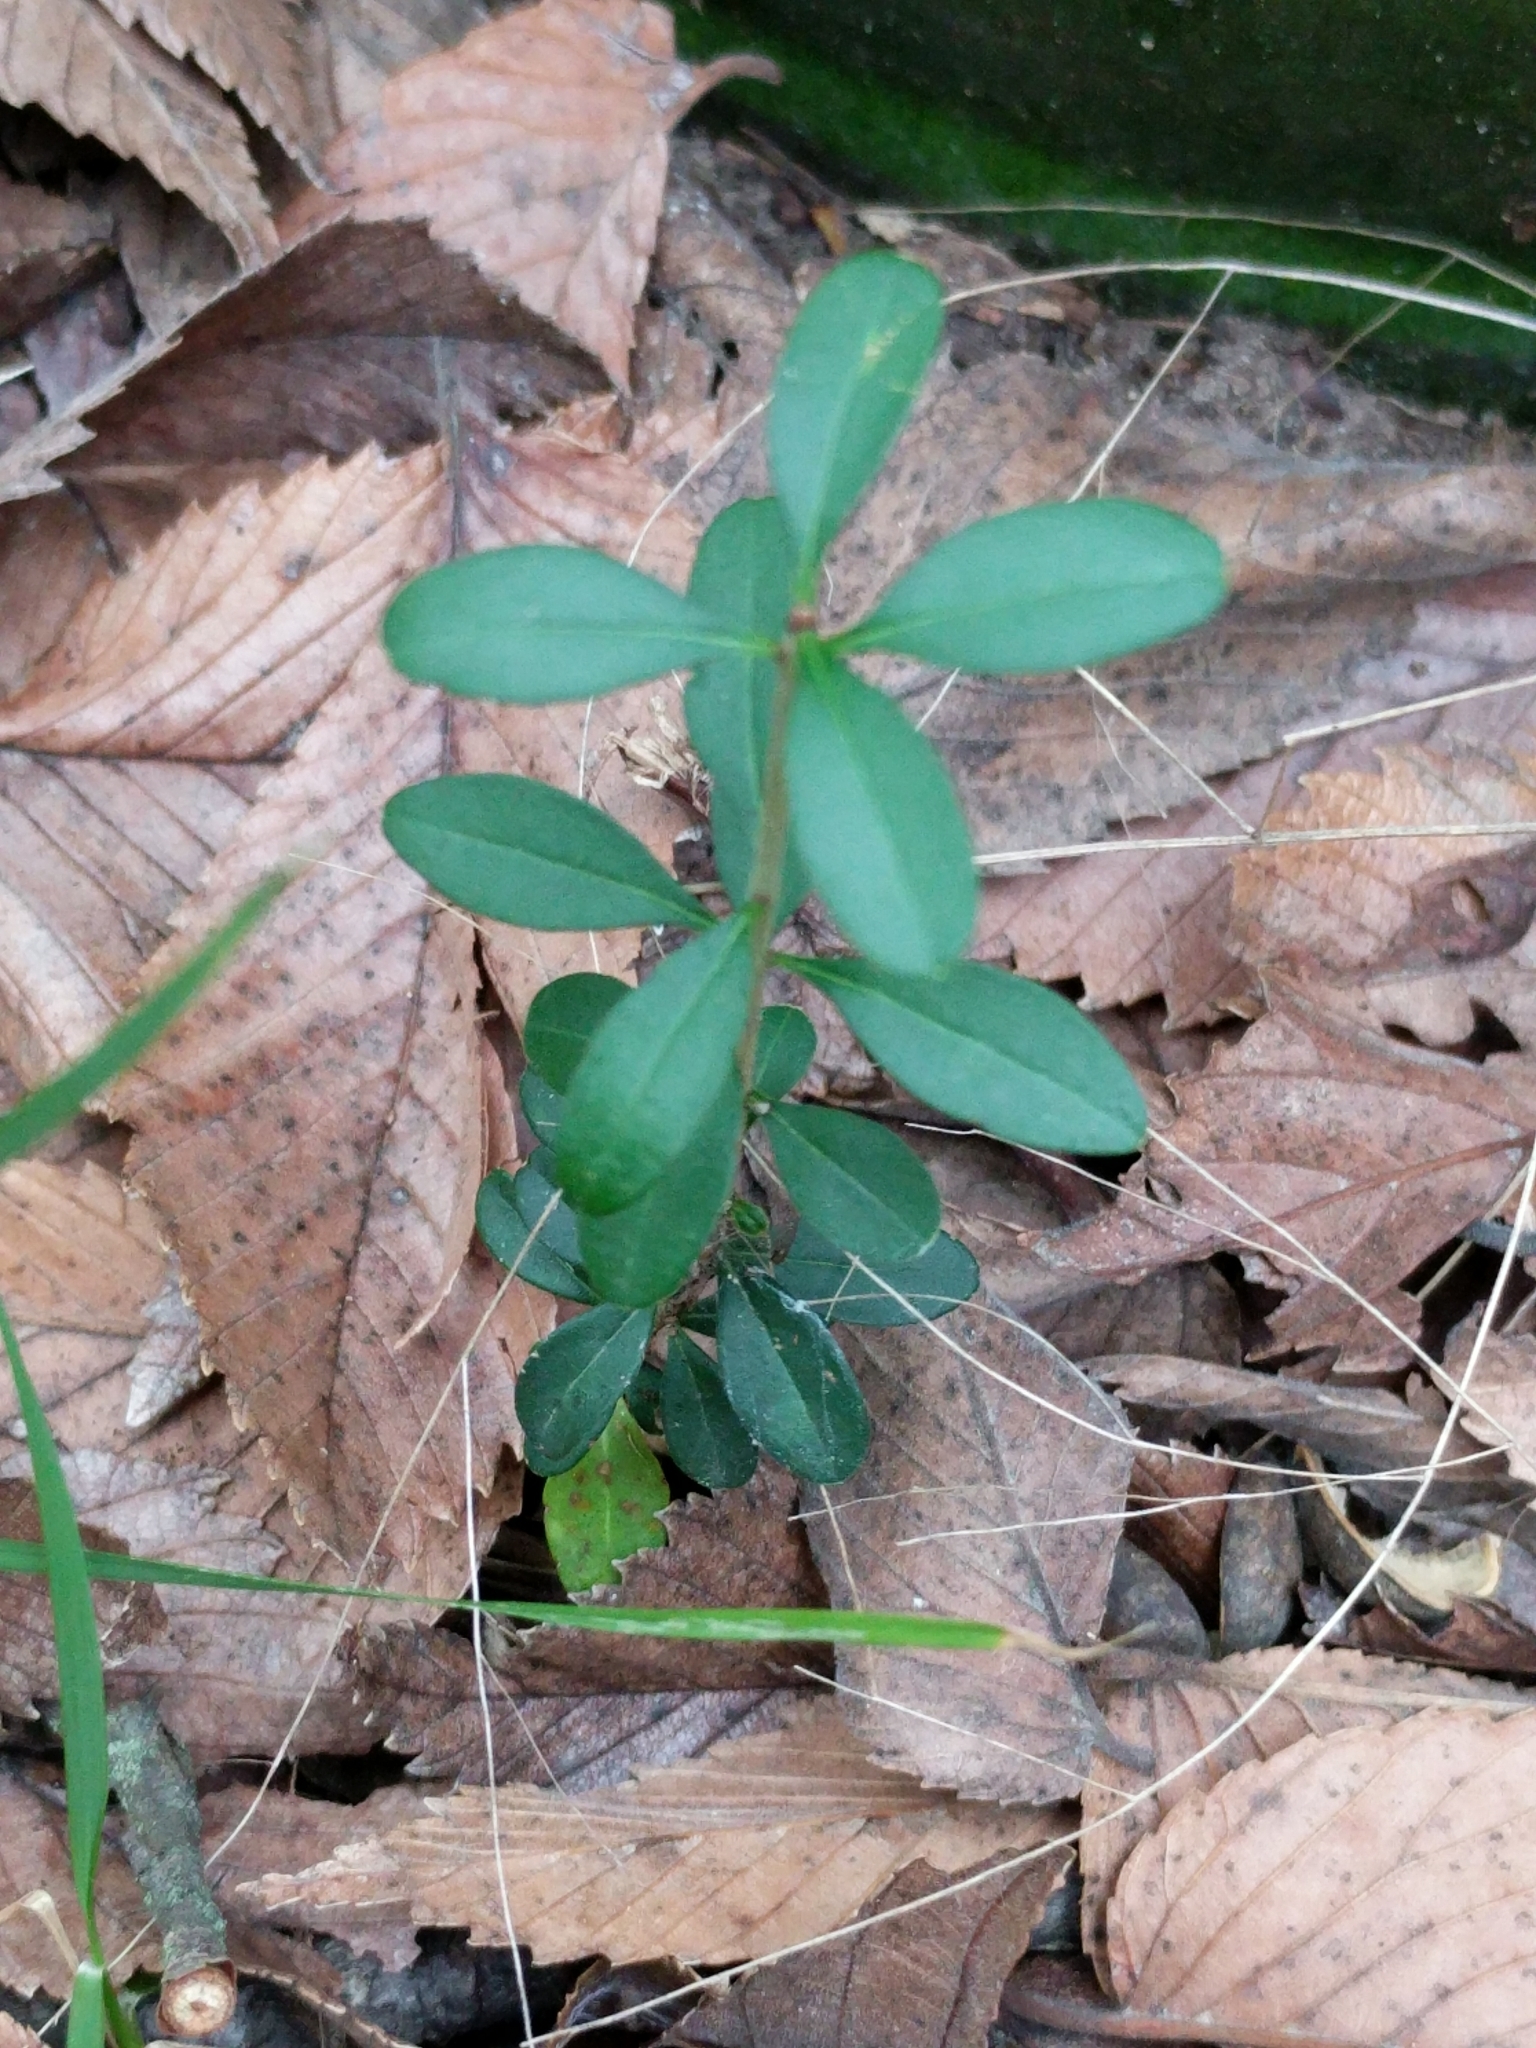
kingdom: Plantae
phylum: Tracheophyta
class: Magnoliopsida
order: Lamiales
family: Oleaceae
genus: Ligustrum
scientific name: Ligustrum quihoui
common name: Waxyleaf privet
